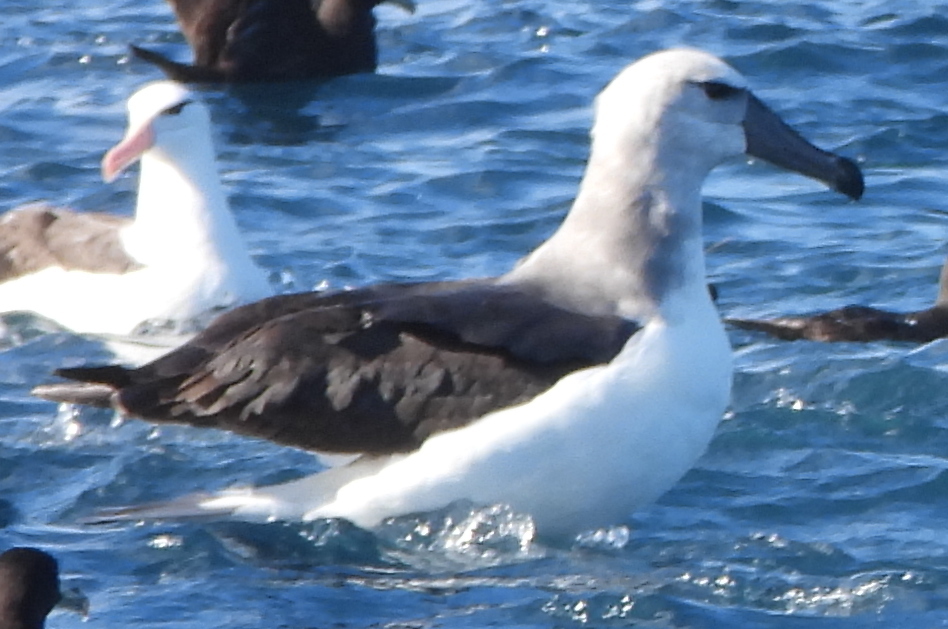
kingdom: Animalia
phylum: Chordata
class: Aves
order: Procellariiformes
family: Diomedeidae
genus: Thalassarche
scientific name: Thalassarche cauta
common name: Shy albatross
